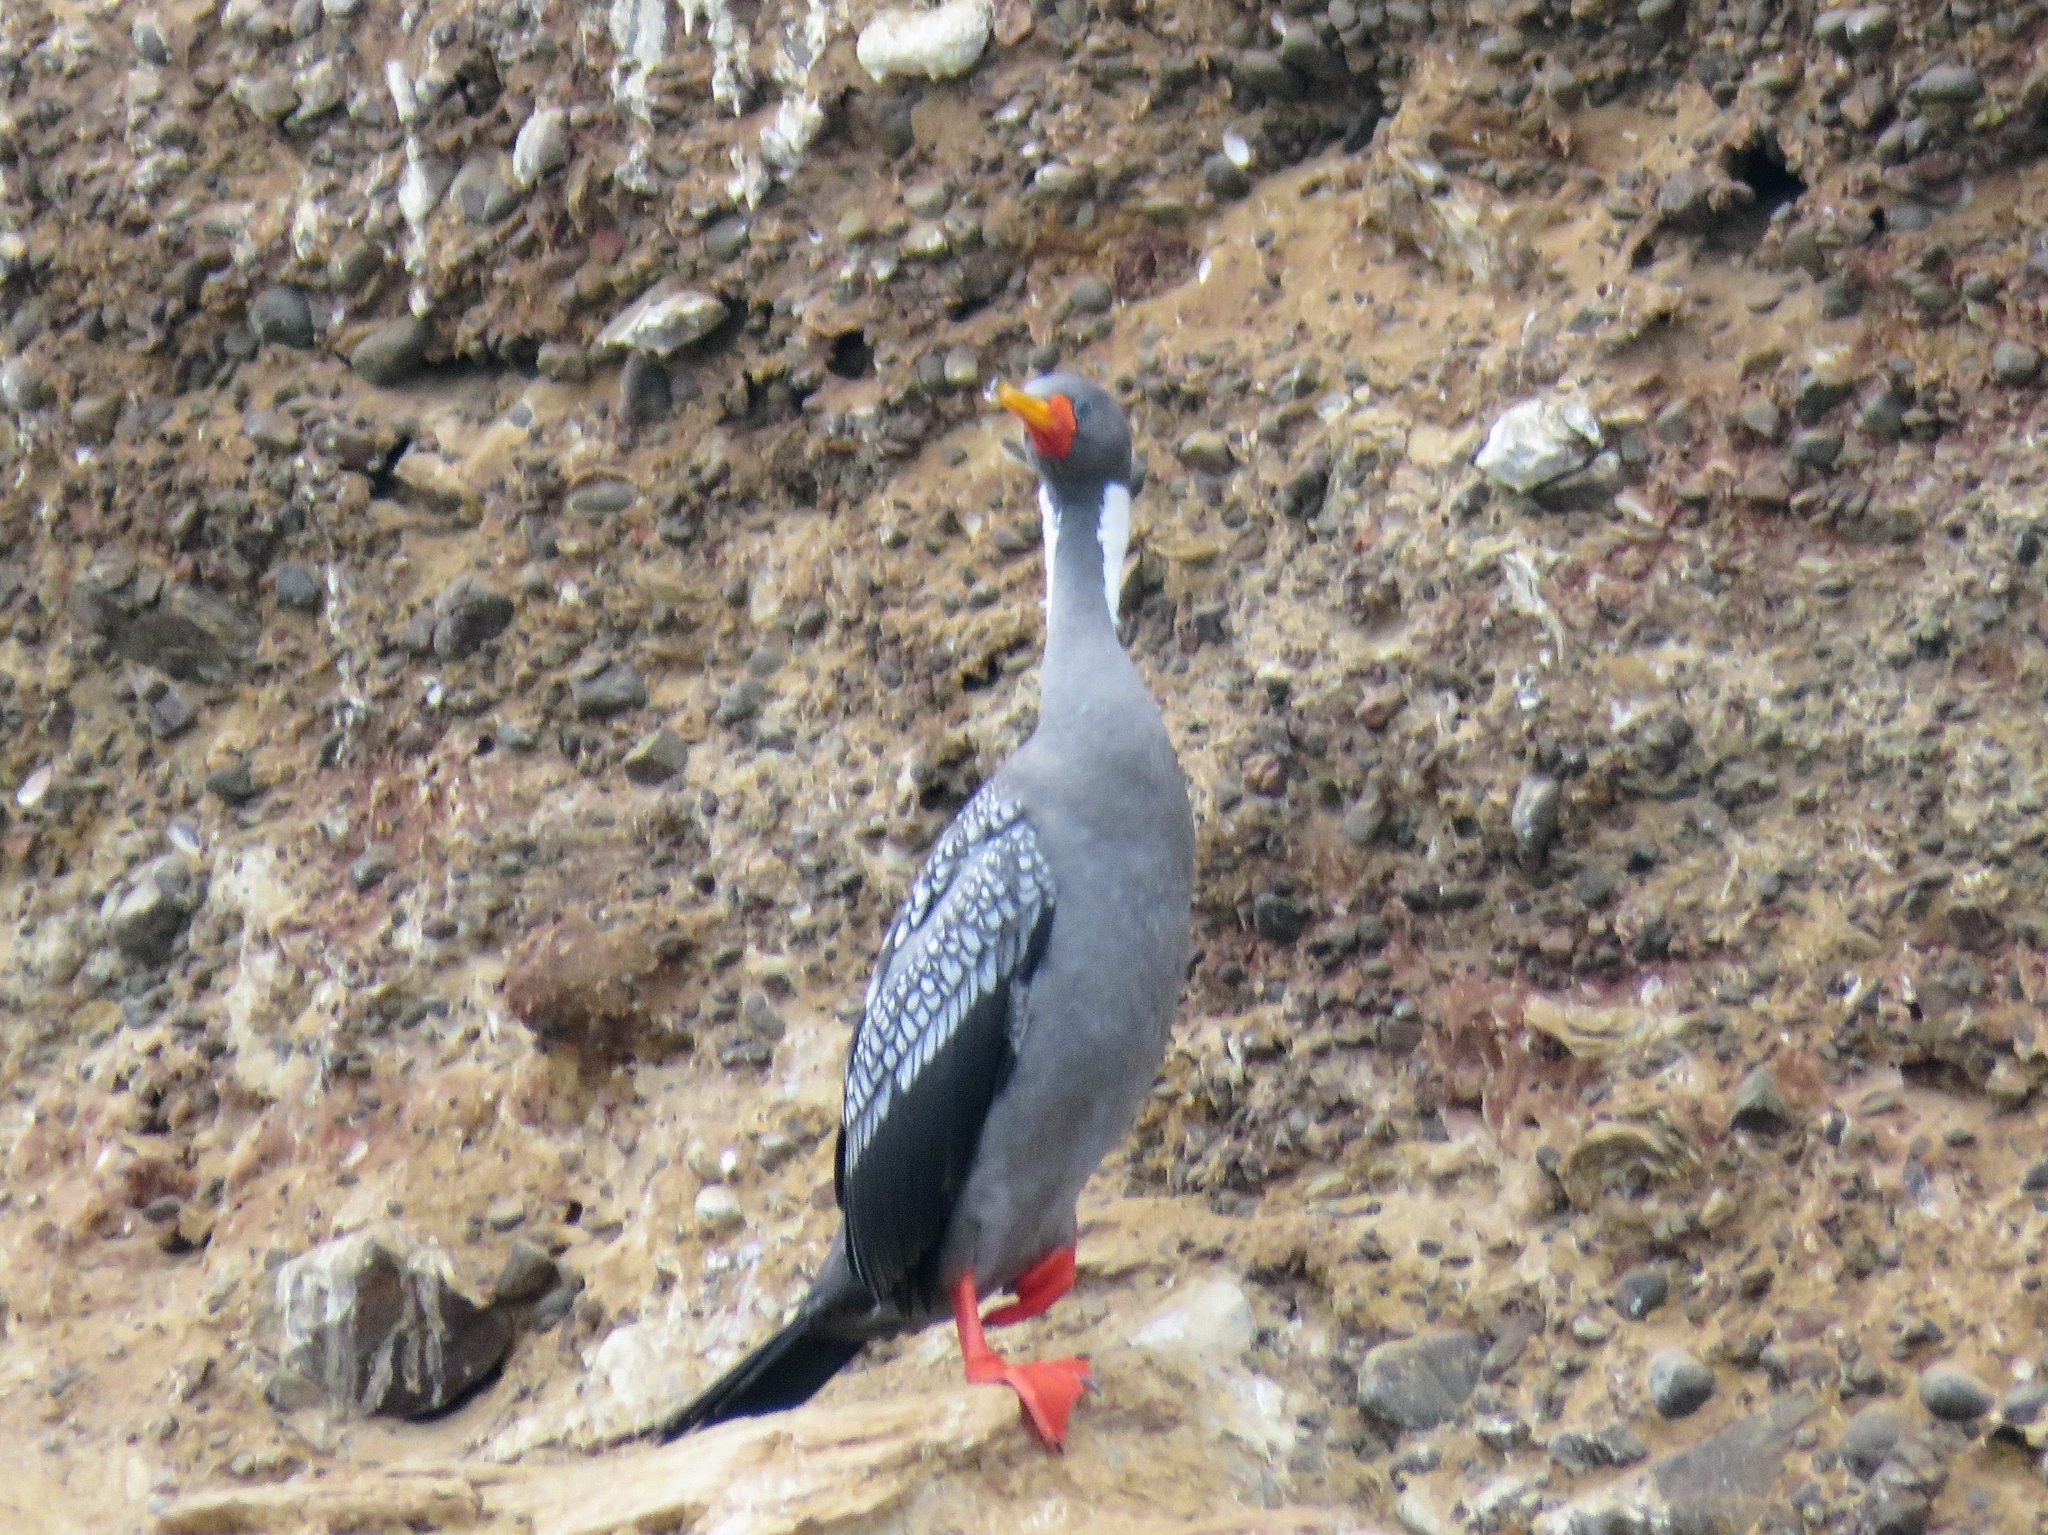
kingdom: Animalia
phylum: Chordata
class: Aves
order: Suliformes
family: Phalacrocoracidae
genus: Phalacrocorax
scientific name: Phalacrocorax gaimardi
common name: Red-legged cormorant
